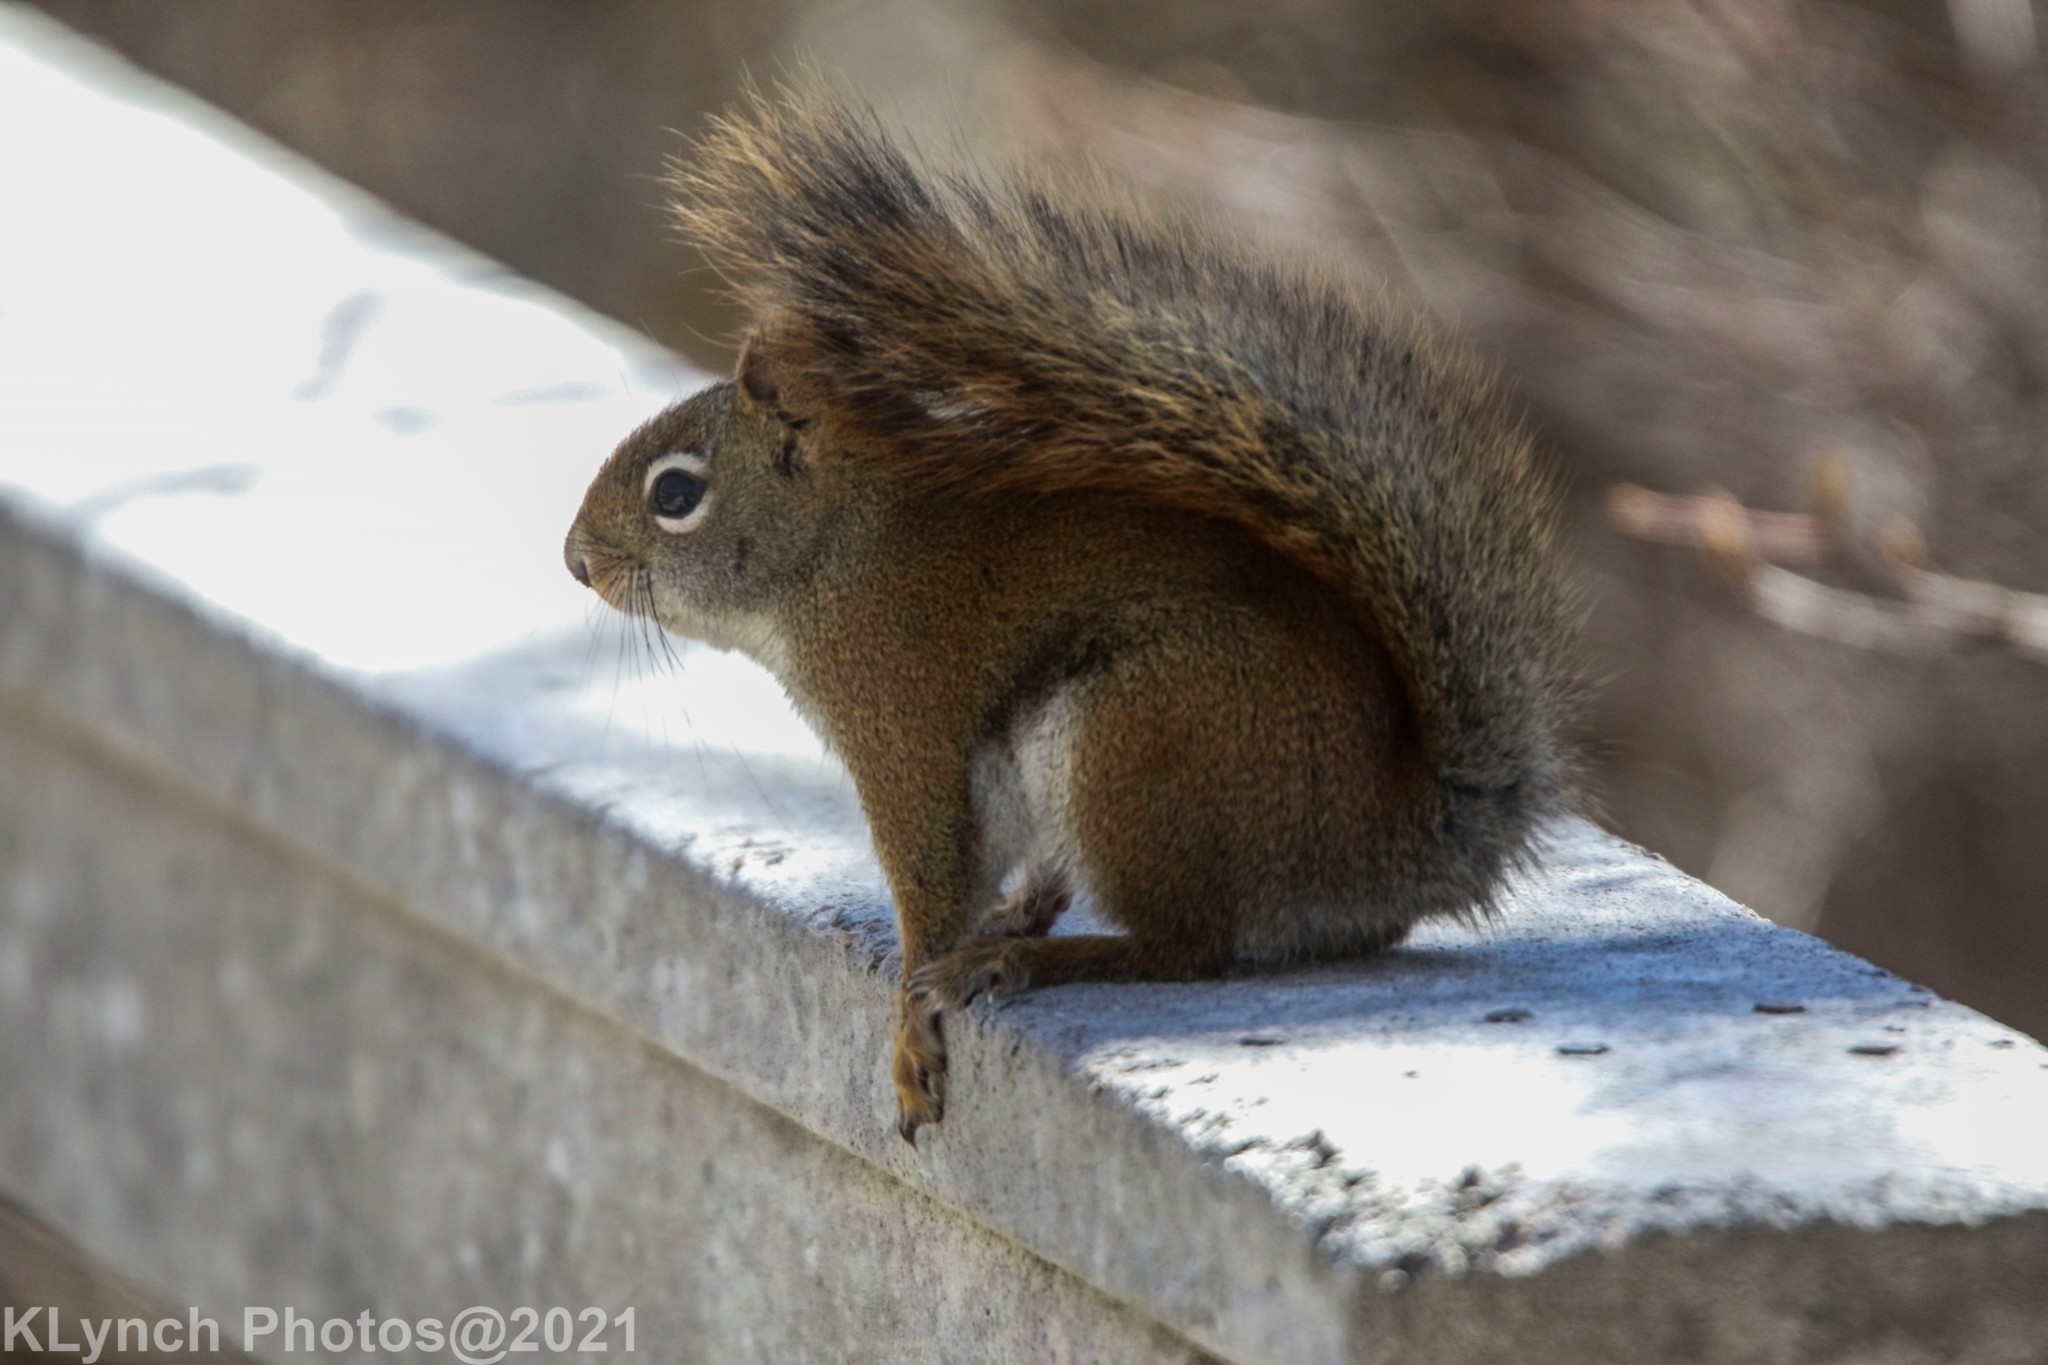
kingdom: Animalia
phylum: Chordata
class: Mammalia
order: Rodentia
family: Sciuridae
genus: Tamiasciurus
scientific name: Tamiasciurus hudsonicus
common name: Red squirrel
